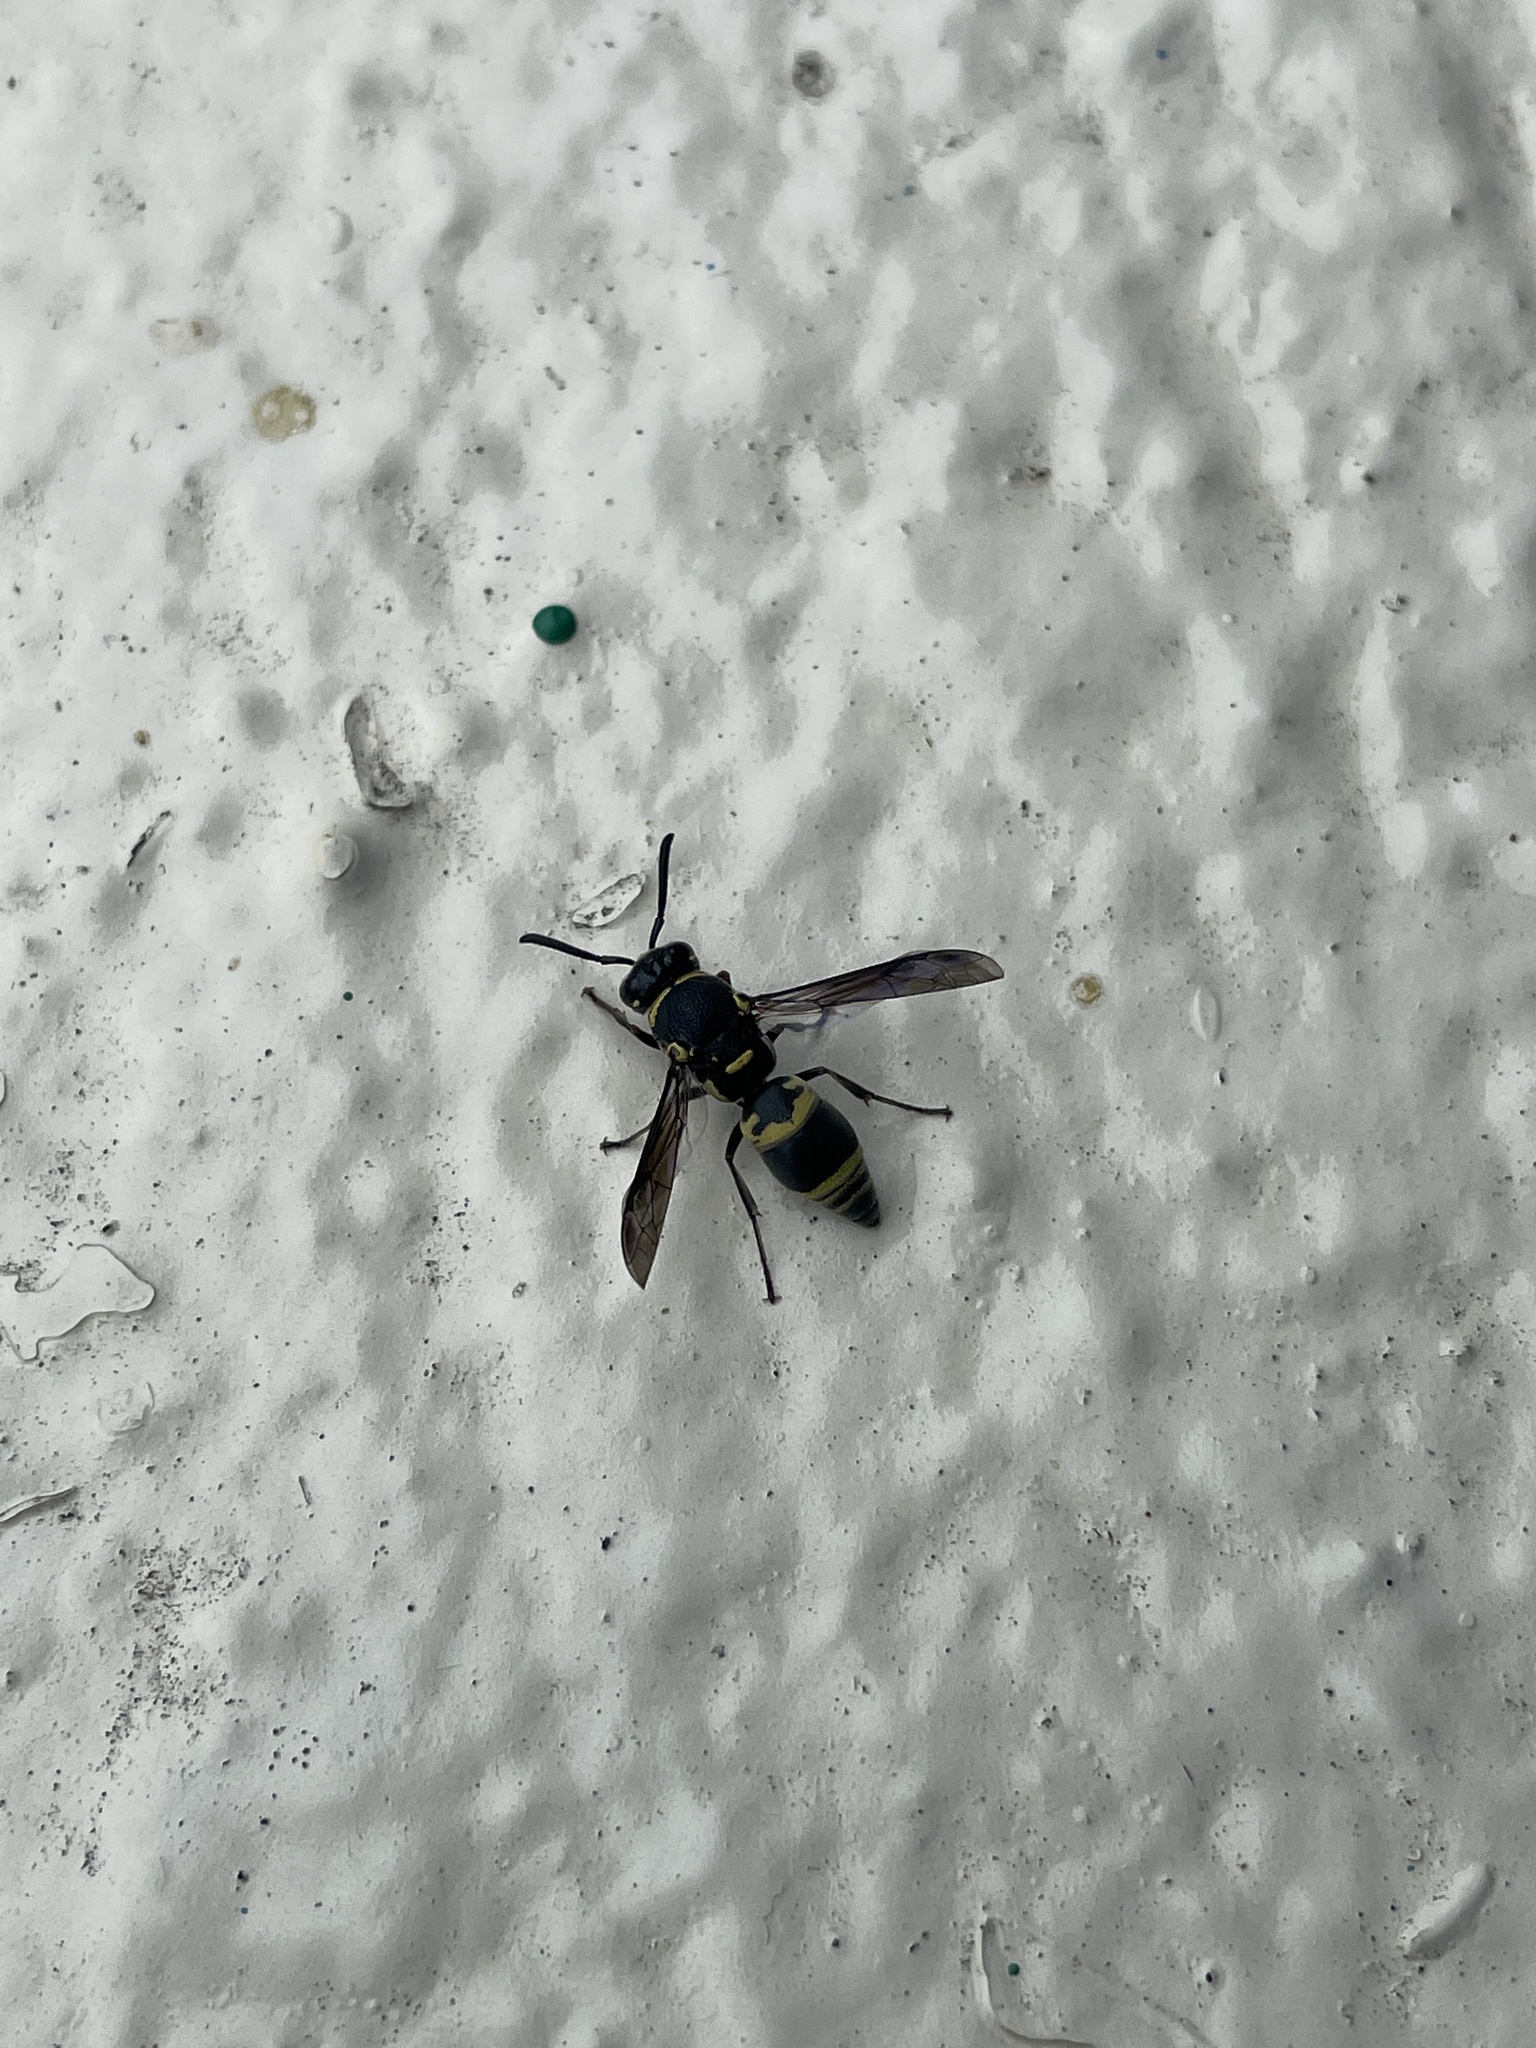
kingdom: Animalia
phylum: Arthropoda
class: Insecta
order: Hymenoptera
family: Eumenidae
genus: Euodynerus
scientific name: Euodynerus trilobus
